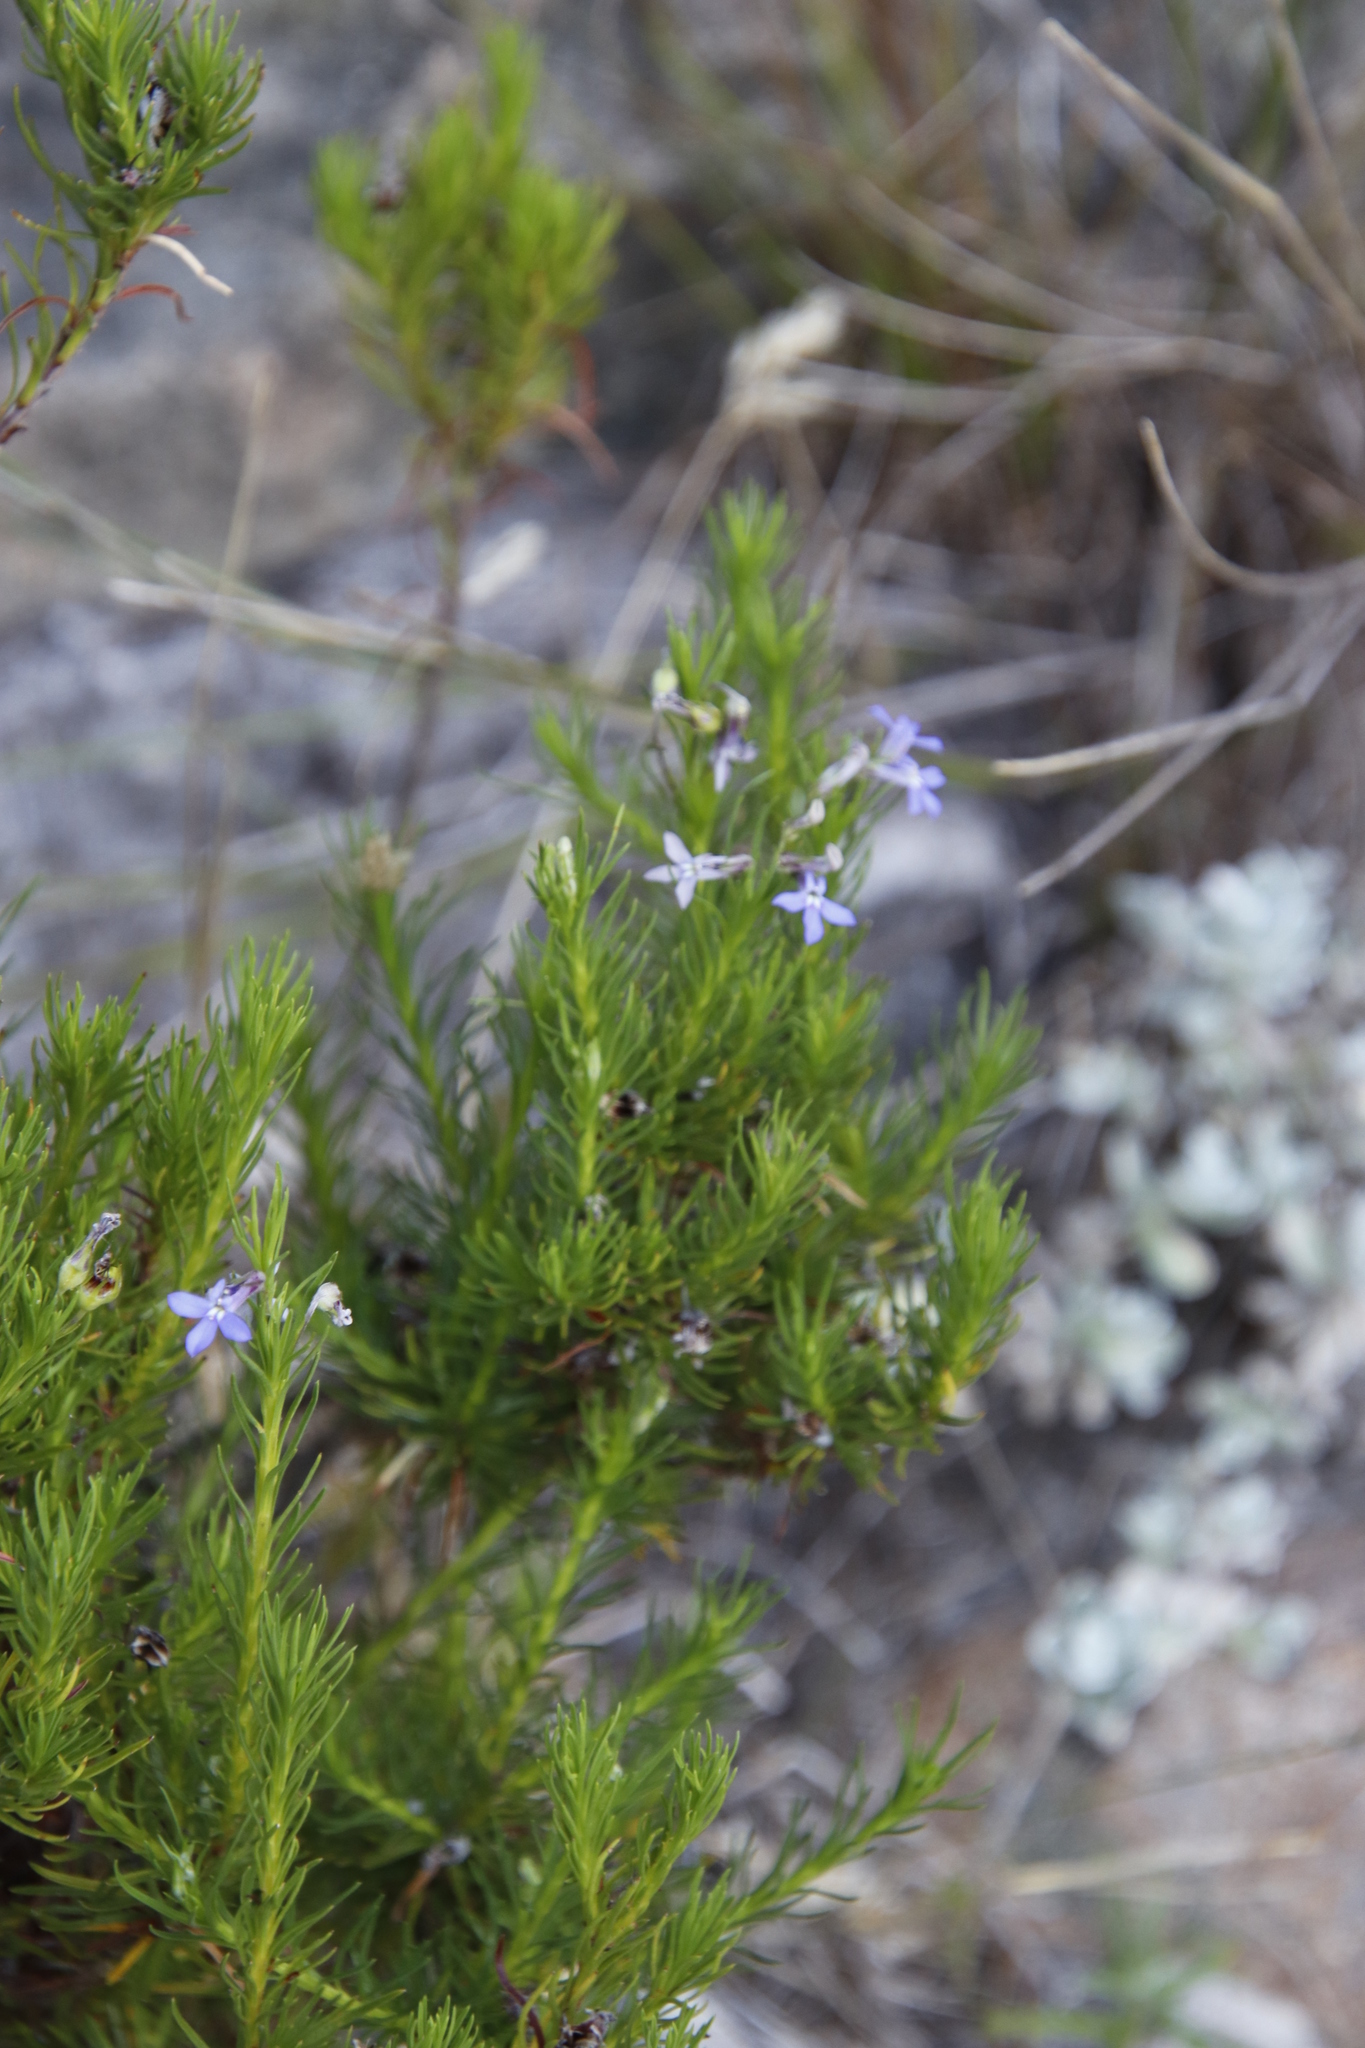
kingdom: Plantae
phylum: Tracheophyta
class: Magnoliopsida
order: Asterales
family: Campanulaceae
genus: Lobelia
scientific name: Lobelia pinifolia
